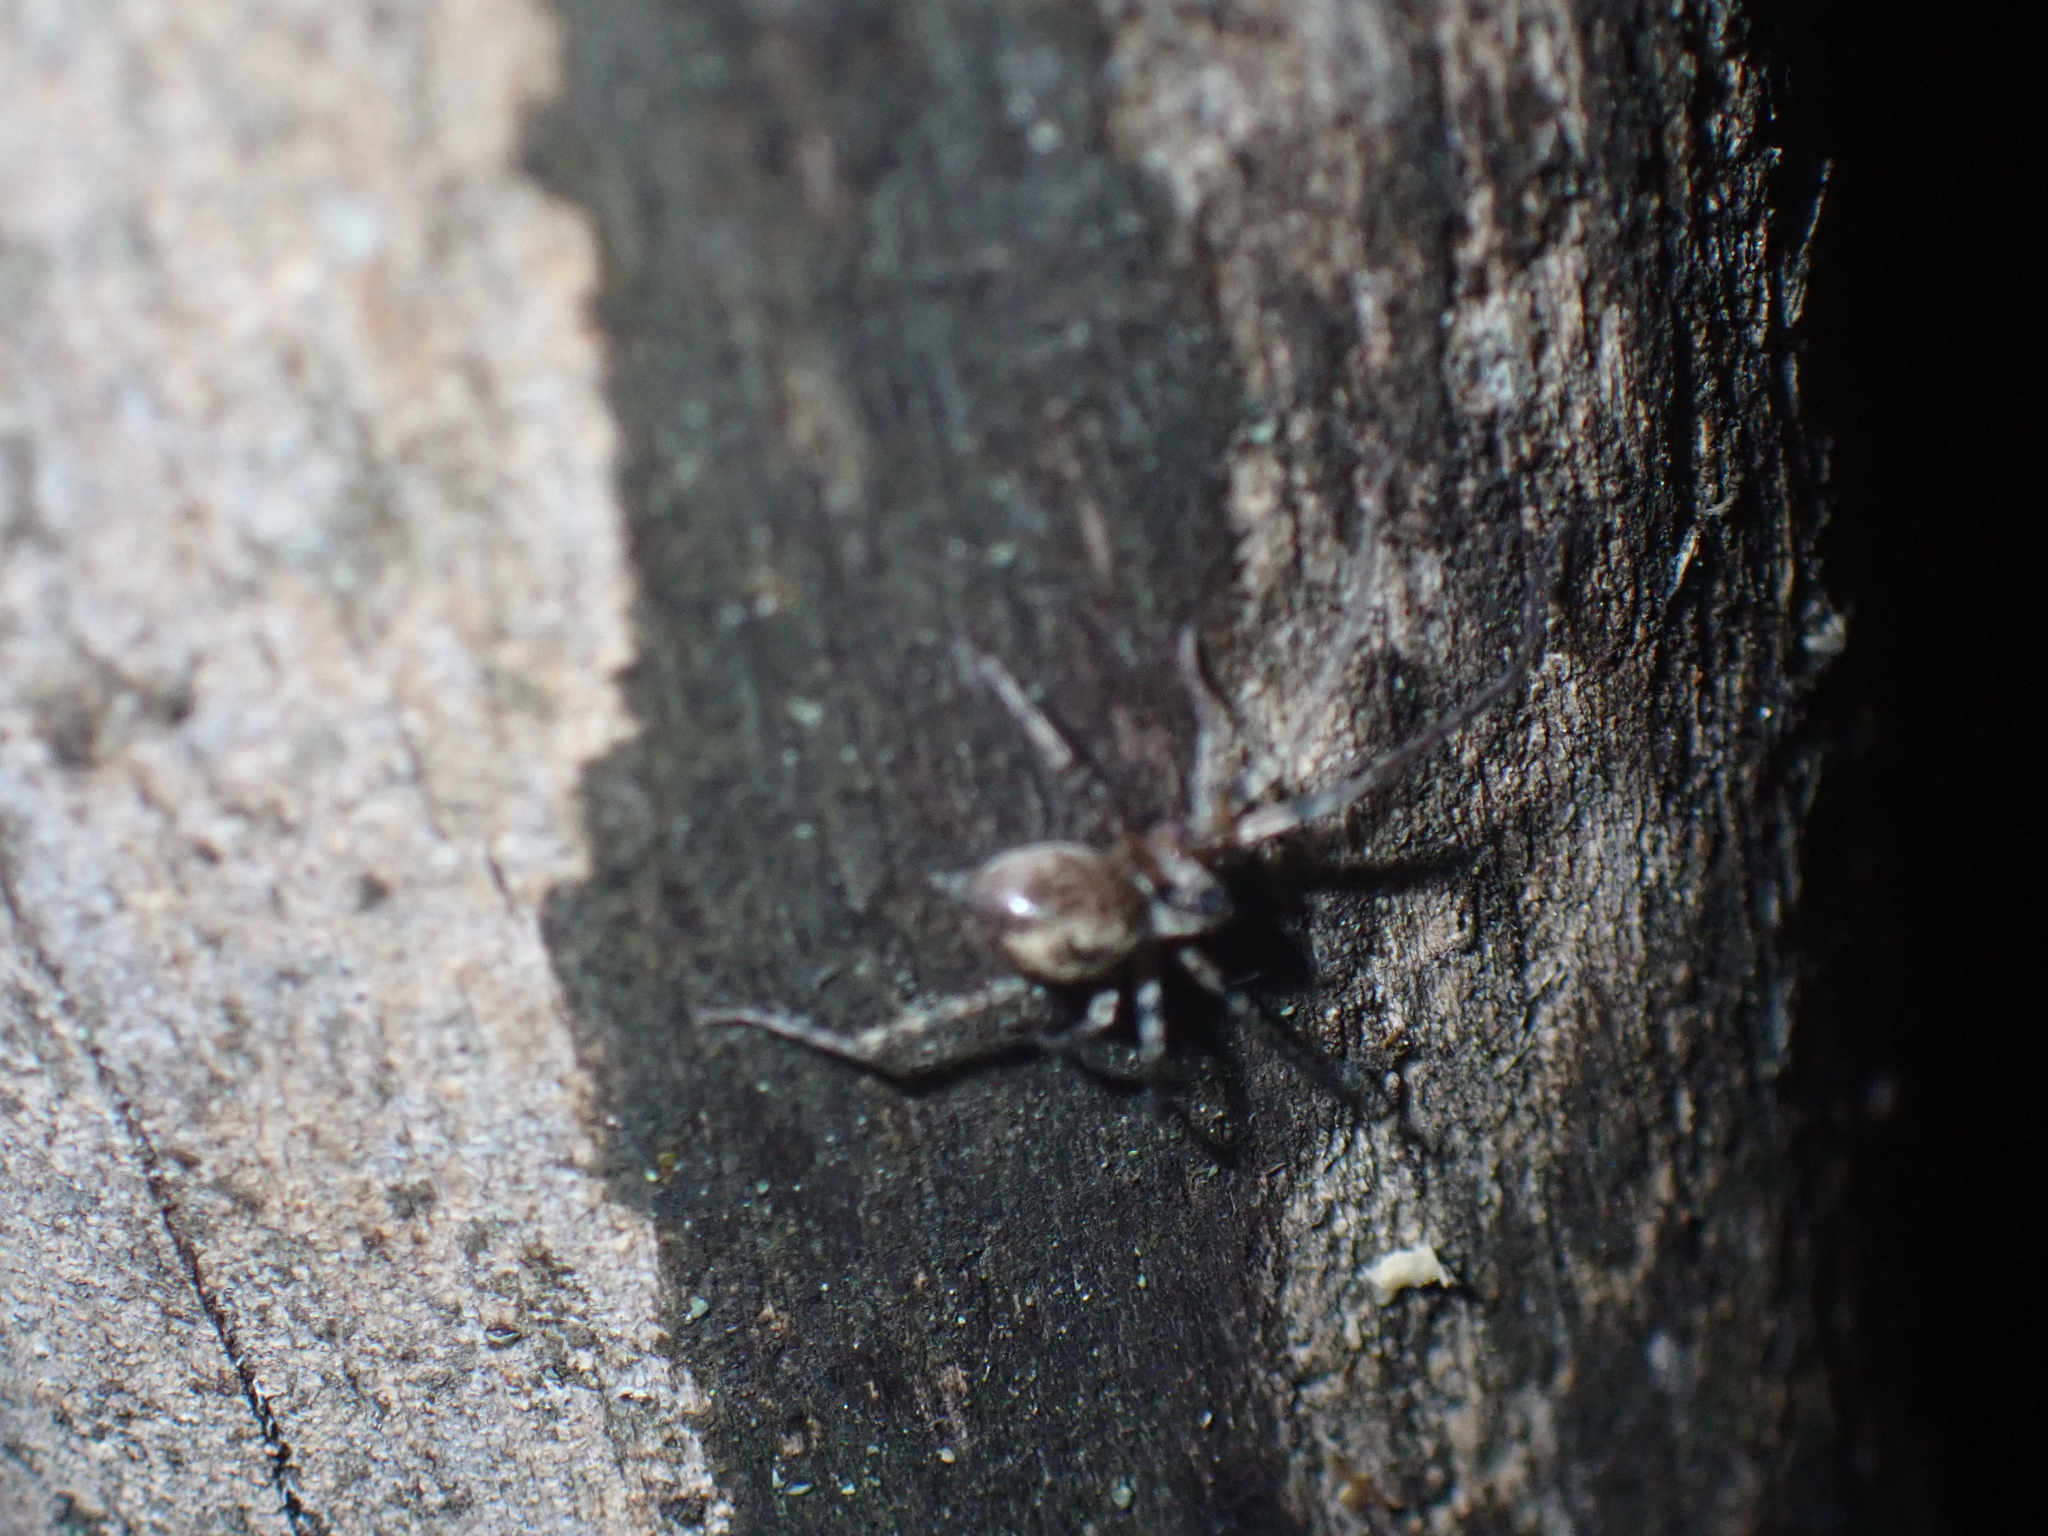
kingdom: Animalia
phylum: Arthropoda
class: Arachnida
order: Araneae
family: Anyphaenidae
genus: Anyphaena
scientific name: Anyphaena accentuata
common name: Buzzing spider
